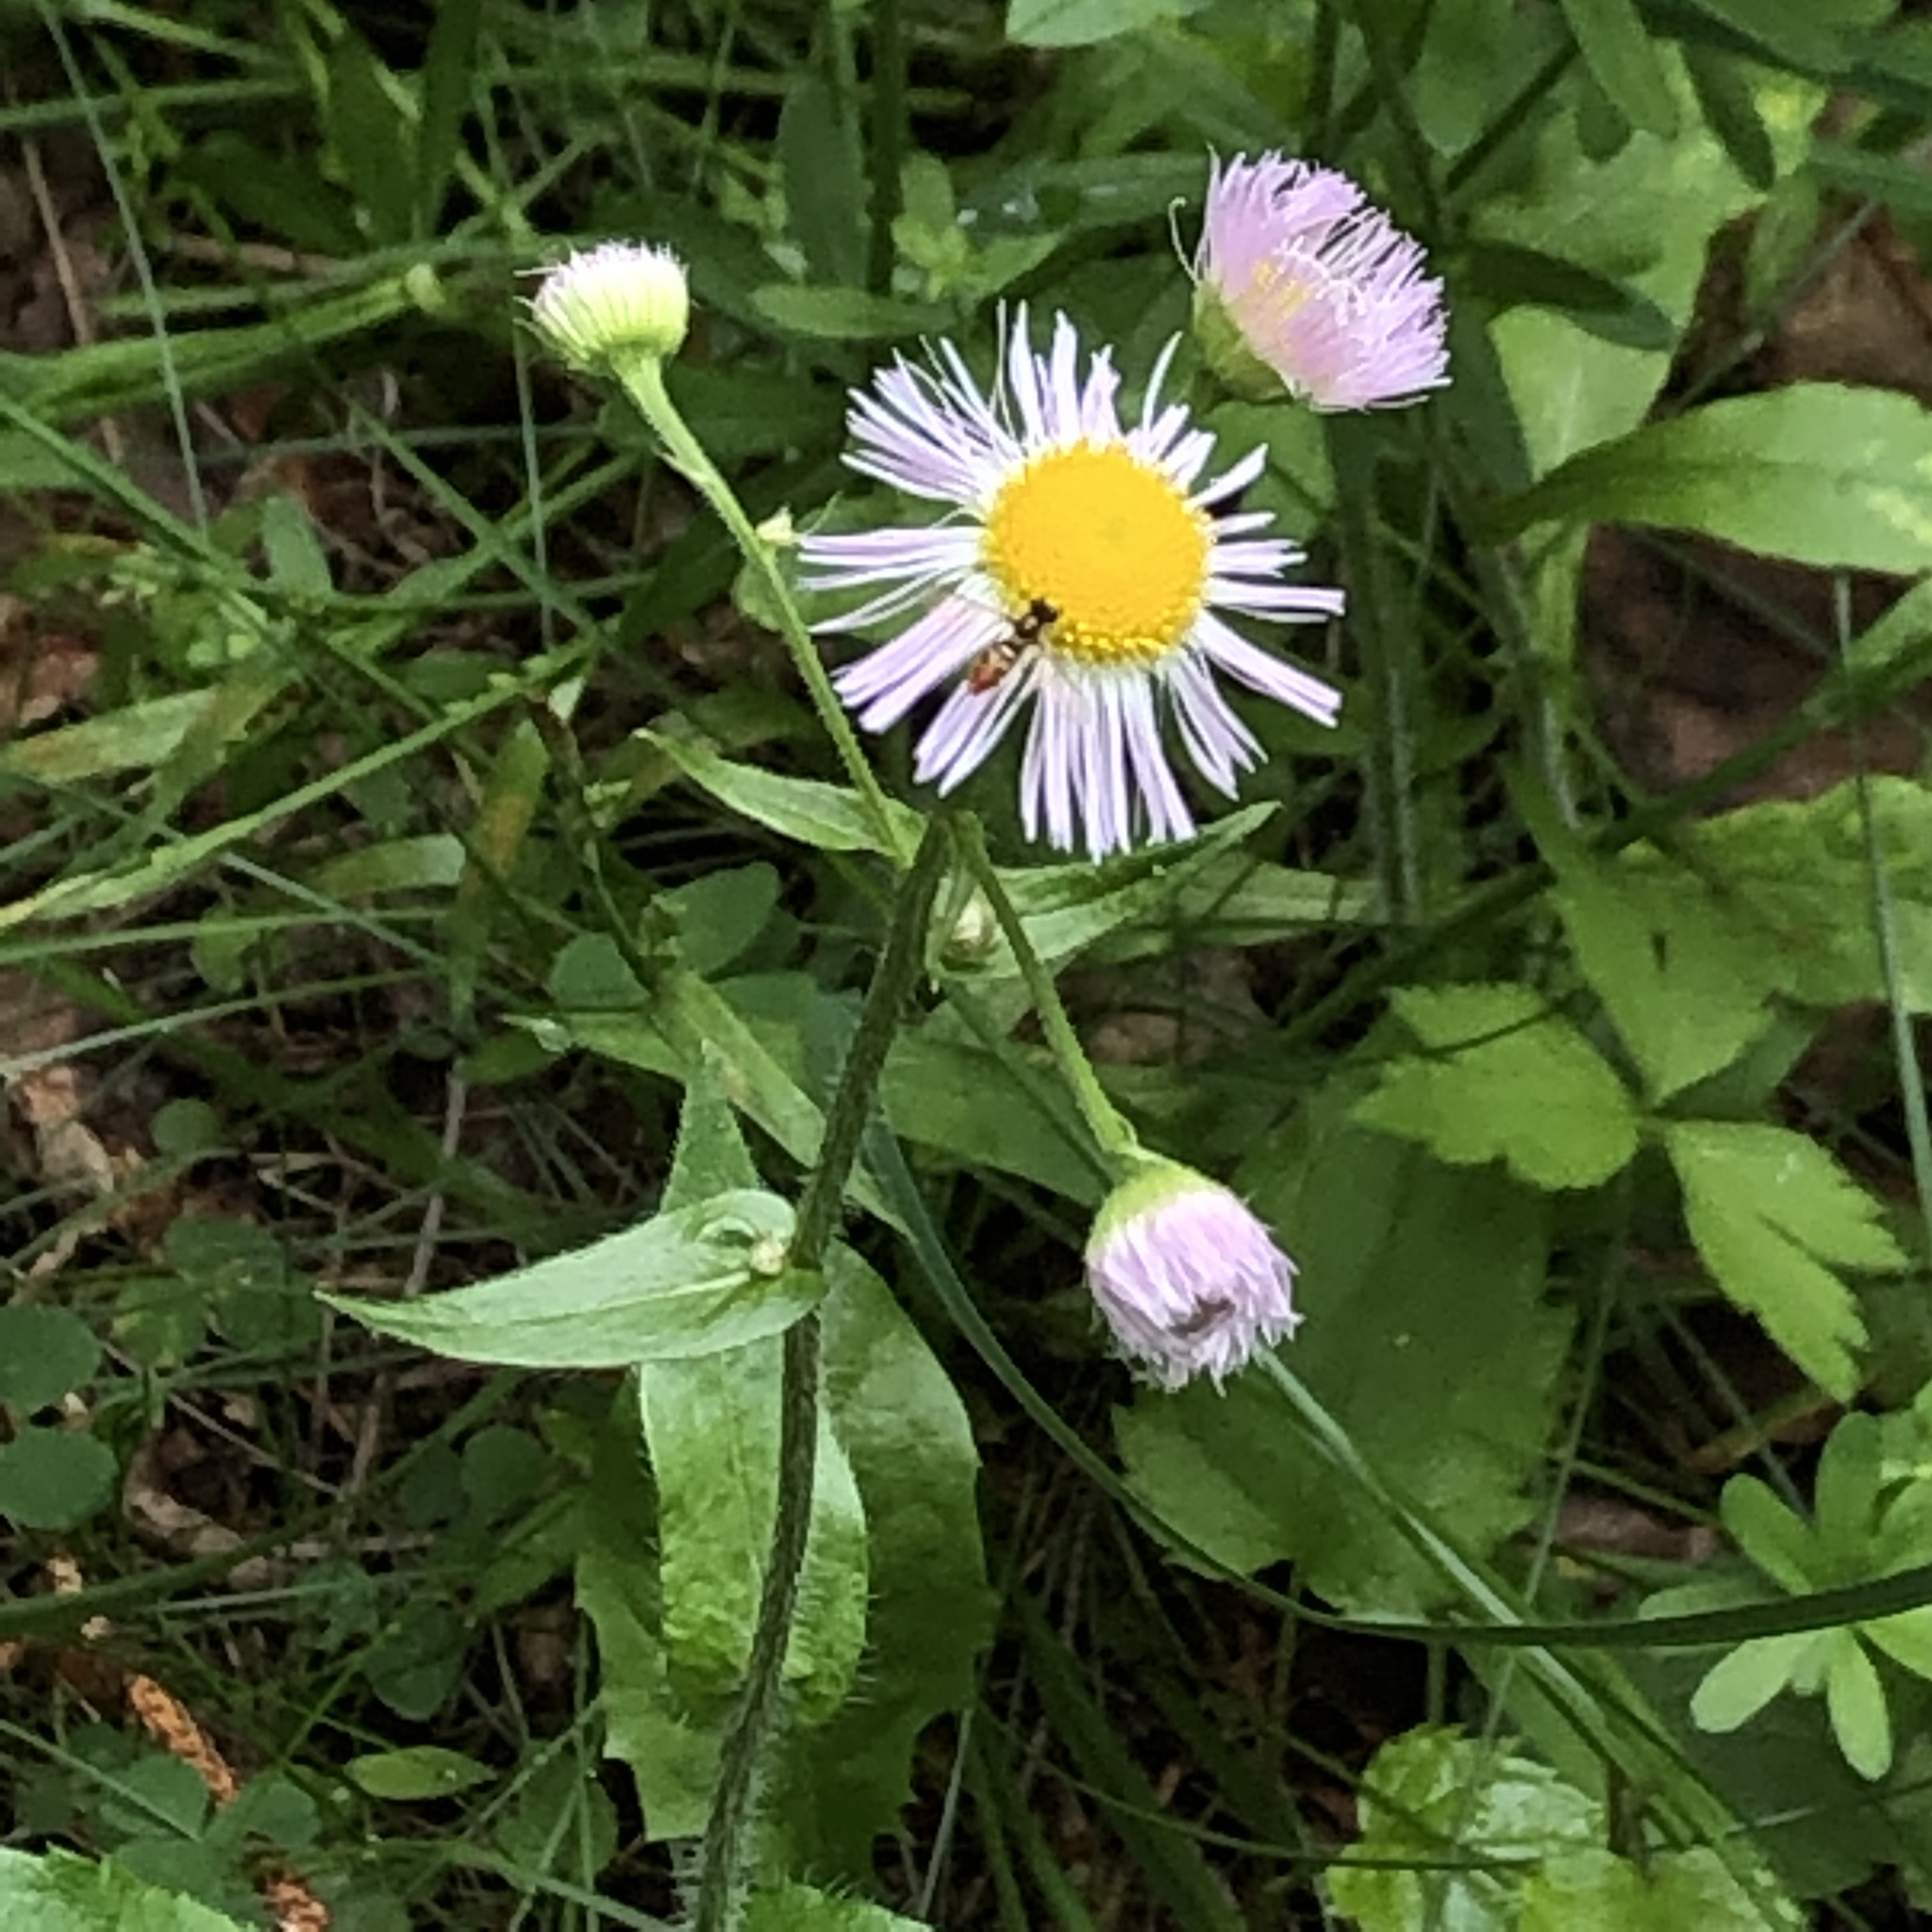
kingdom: Plantae
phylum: Tracheophyta
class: Magnoliopsida
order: Asterales
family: Asteraceae
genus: Erigeron
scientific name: Erigeron philadelphicus
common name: Robin's-plantain
